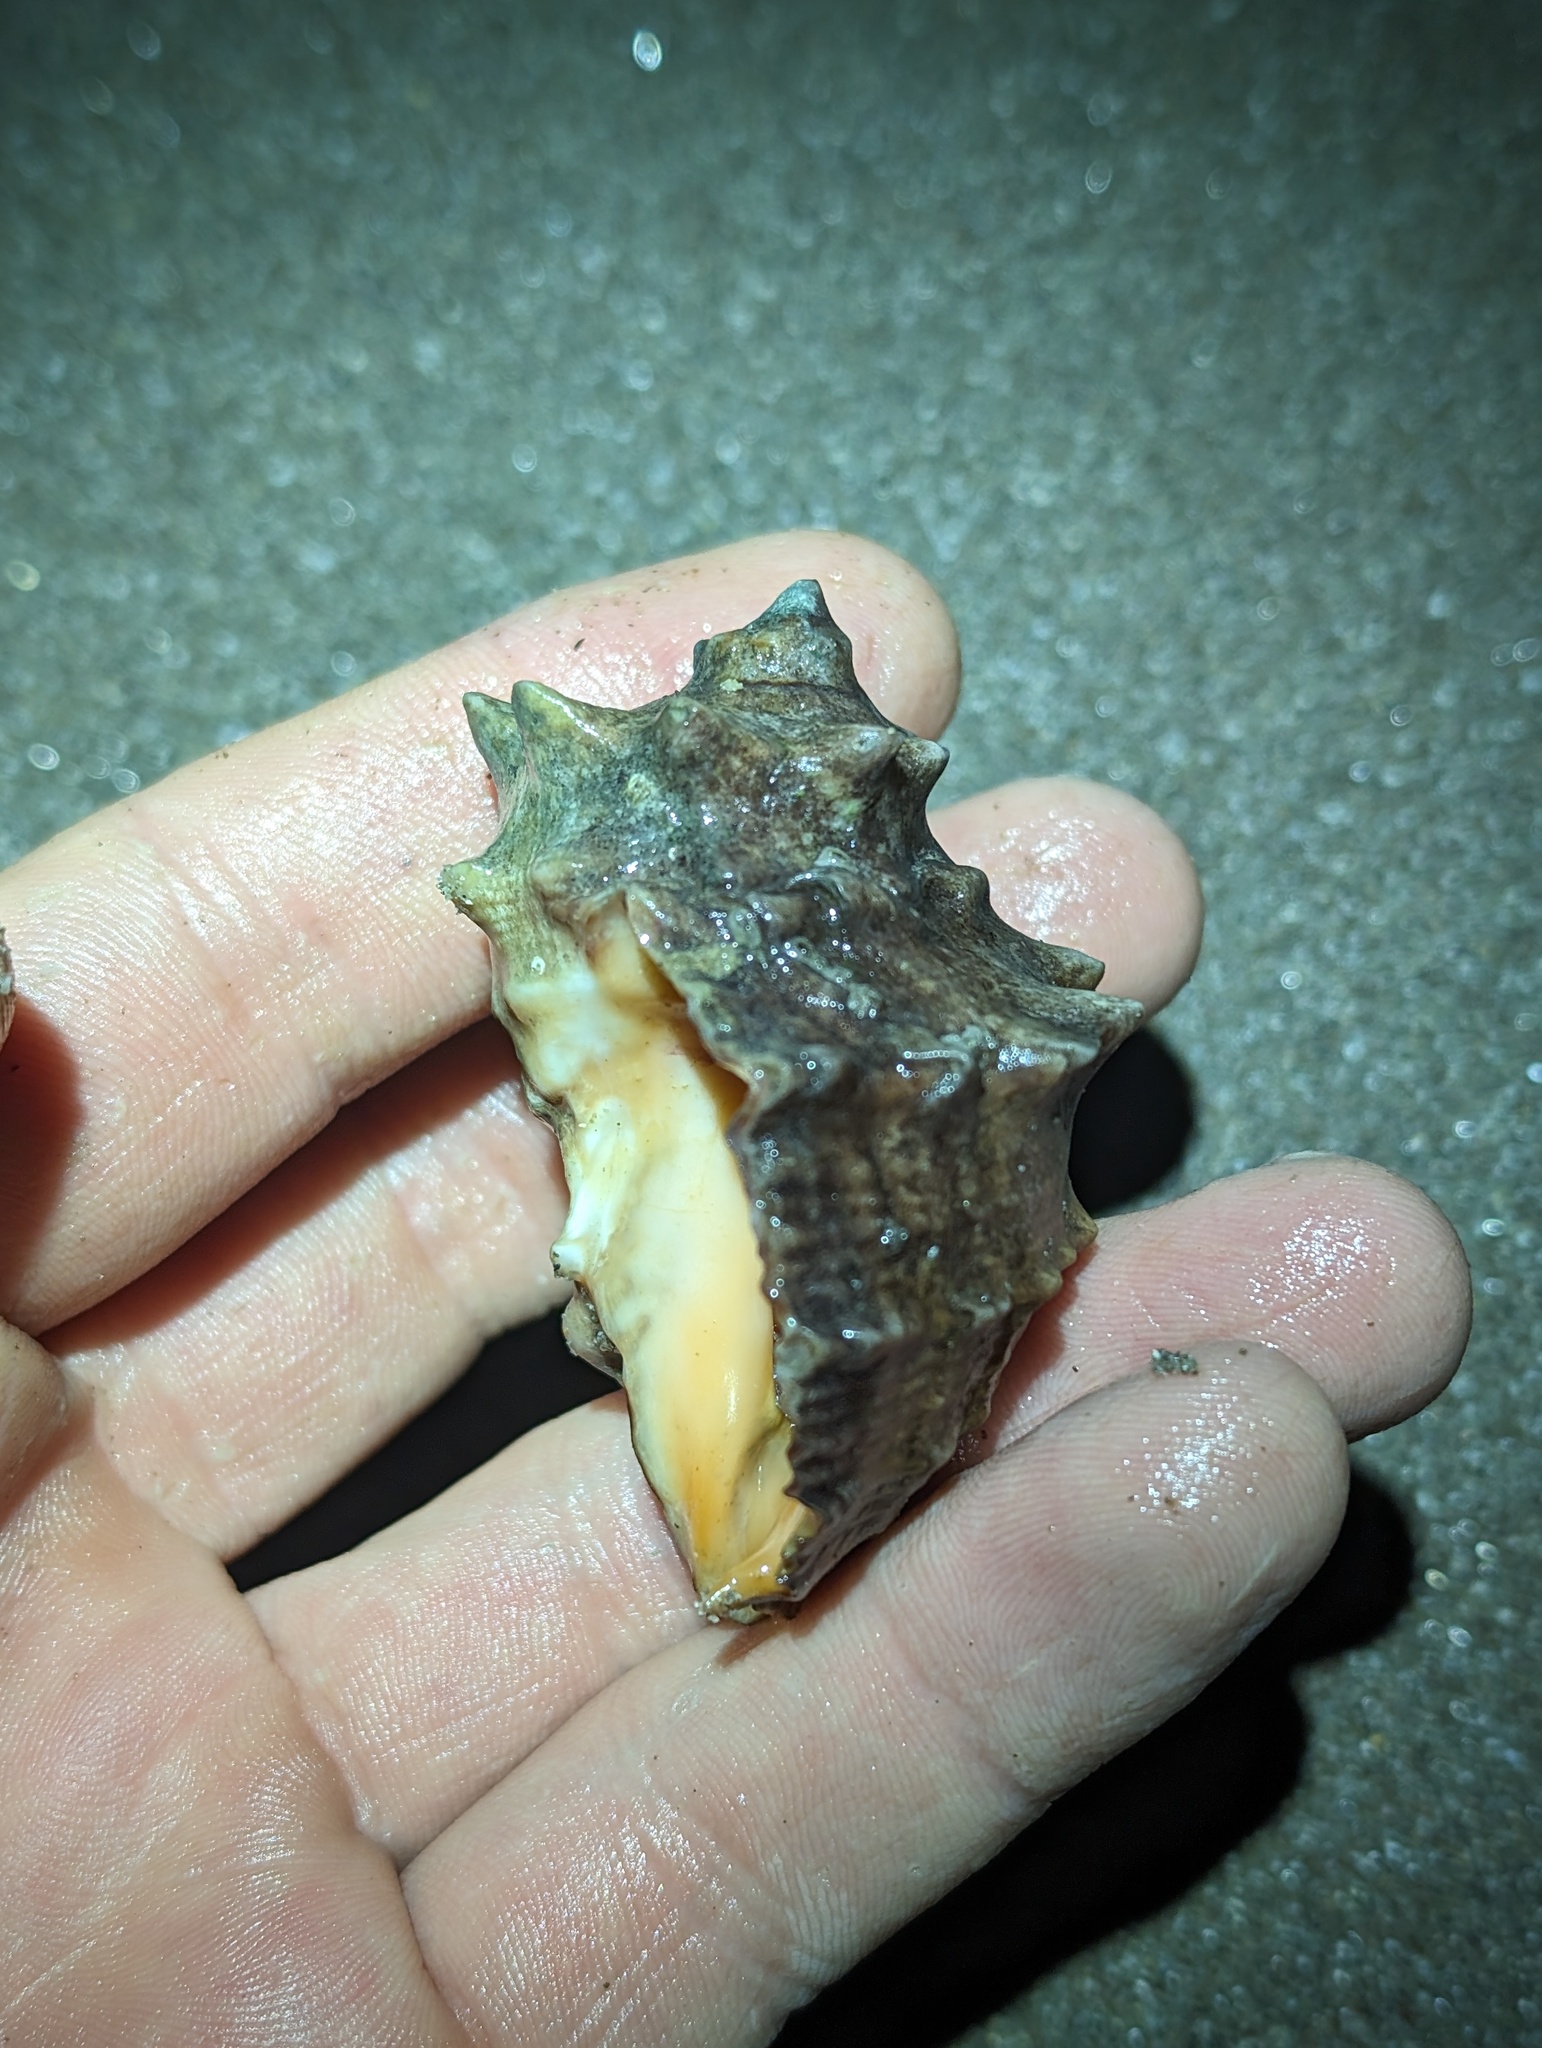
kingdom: Animalia
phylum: Mollusca
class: Gastropoda
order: Neogastropoda
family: Muricidae
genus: Neorapana
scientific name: Neorapana tuberculata
